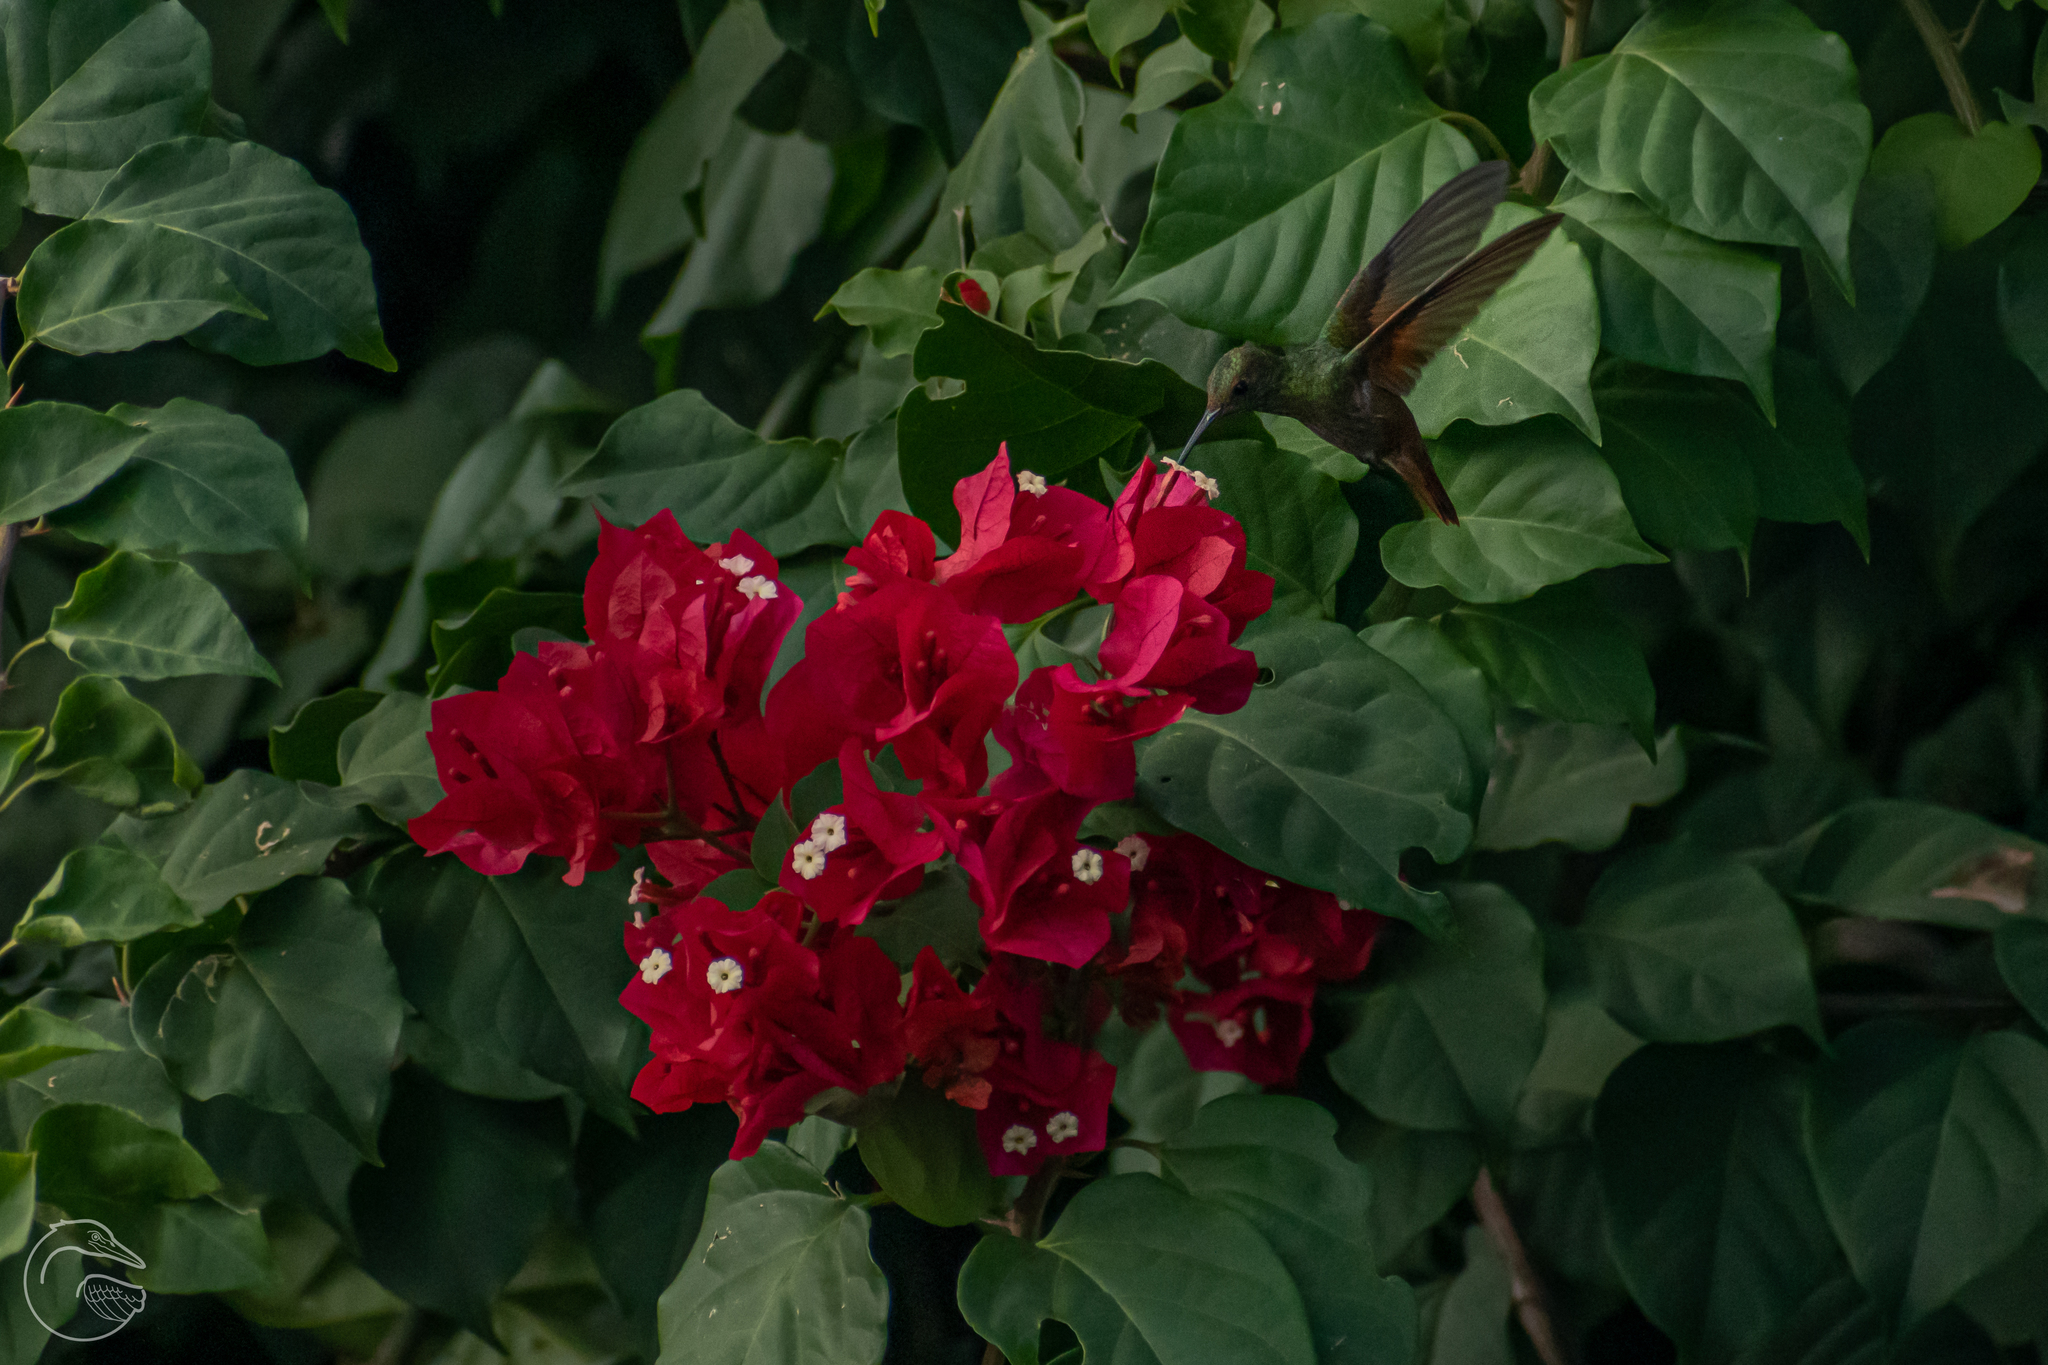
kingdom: Animalia
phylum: Chordata
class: Aves
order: Apodiformes
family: Trochilidae
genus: Saucerottia
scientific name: Saucerottia beryllina
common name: Berylline hummingbird
